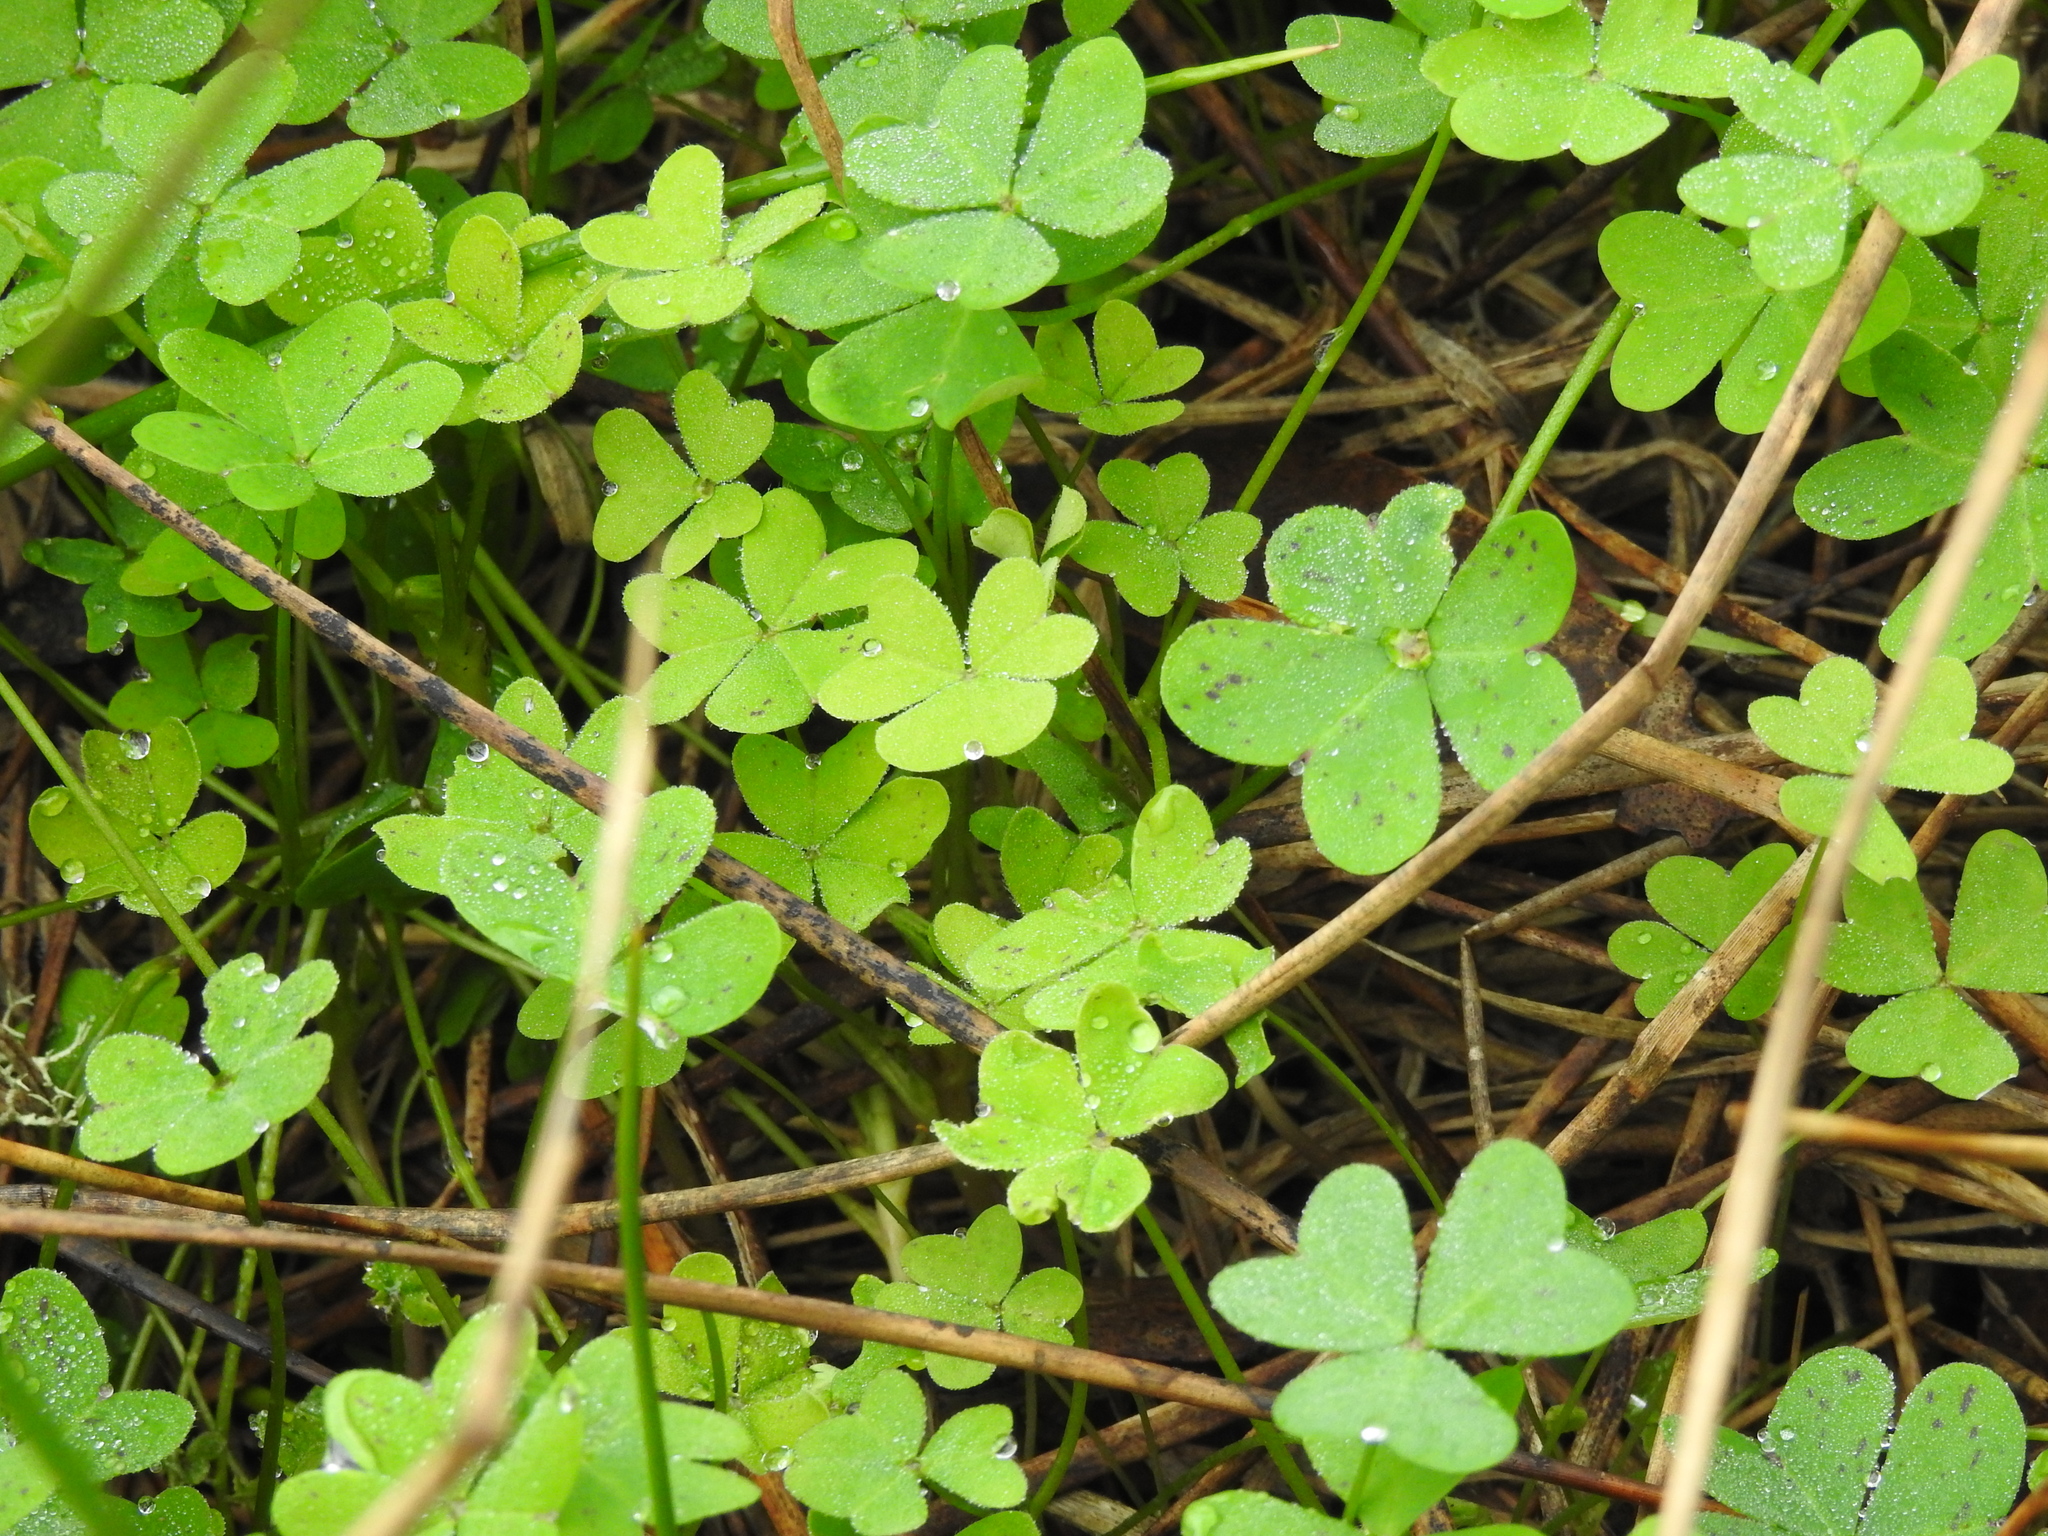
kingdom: Plantae
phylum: Tracheophyta
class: Magnoliopsida
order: Oxalidales
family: Oxalidaceae
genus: Oxalis
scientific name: Oxalis pes-caprae
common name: Bermuda-buttercup
